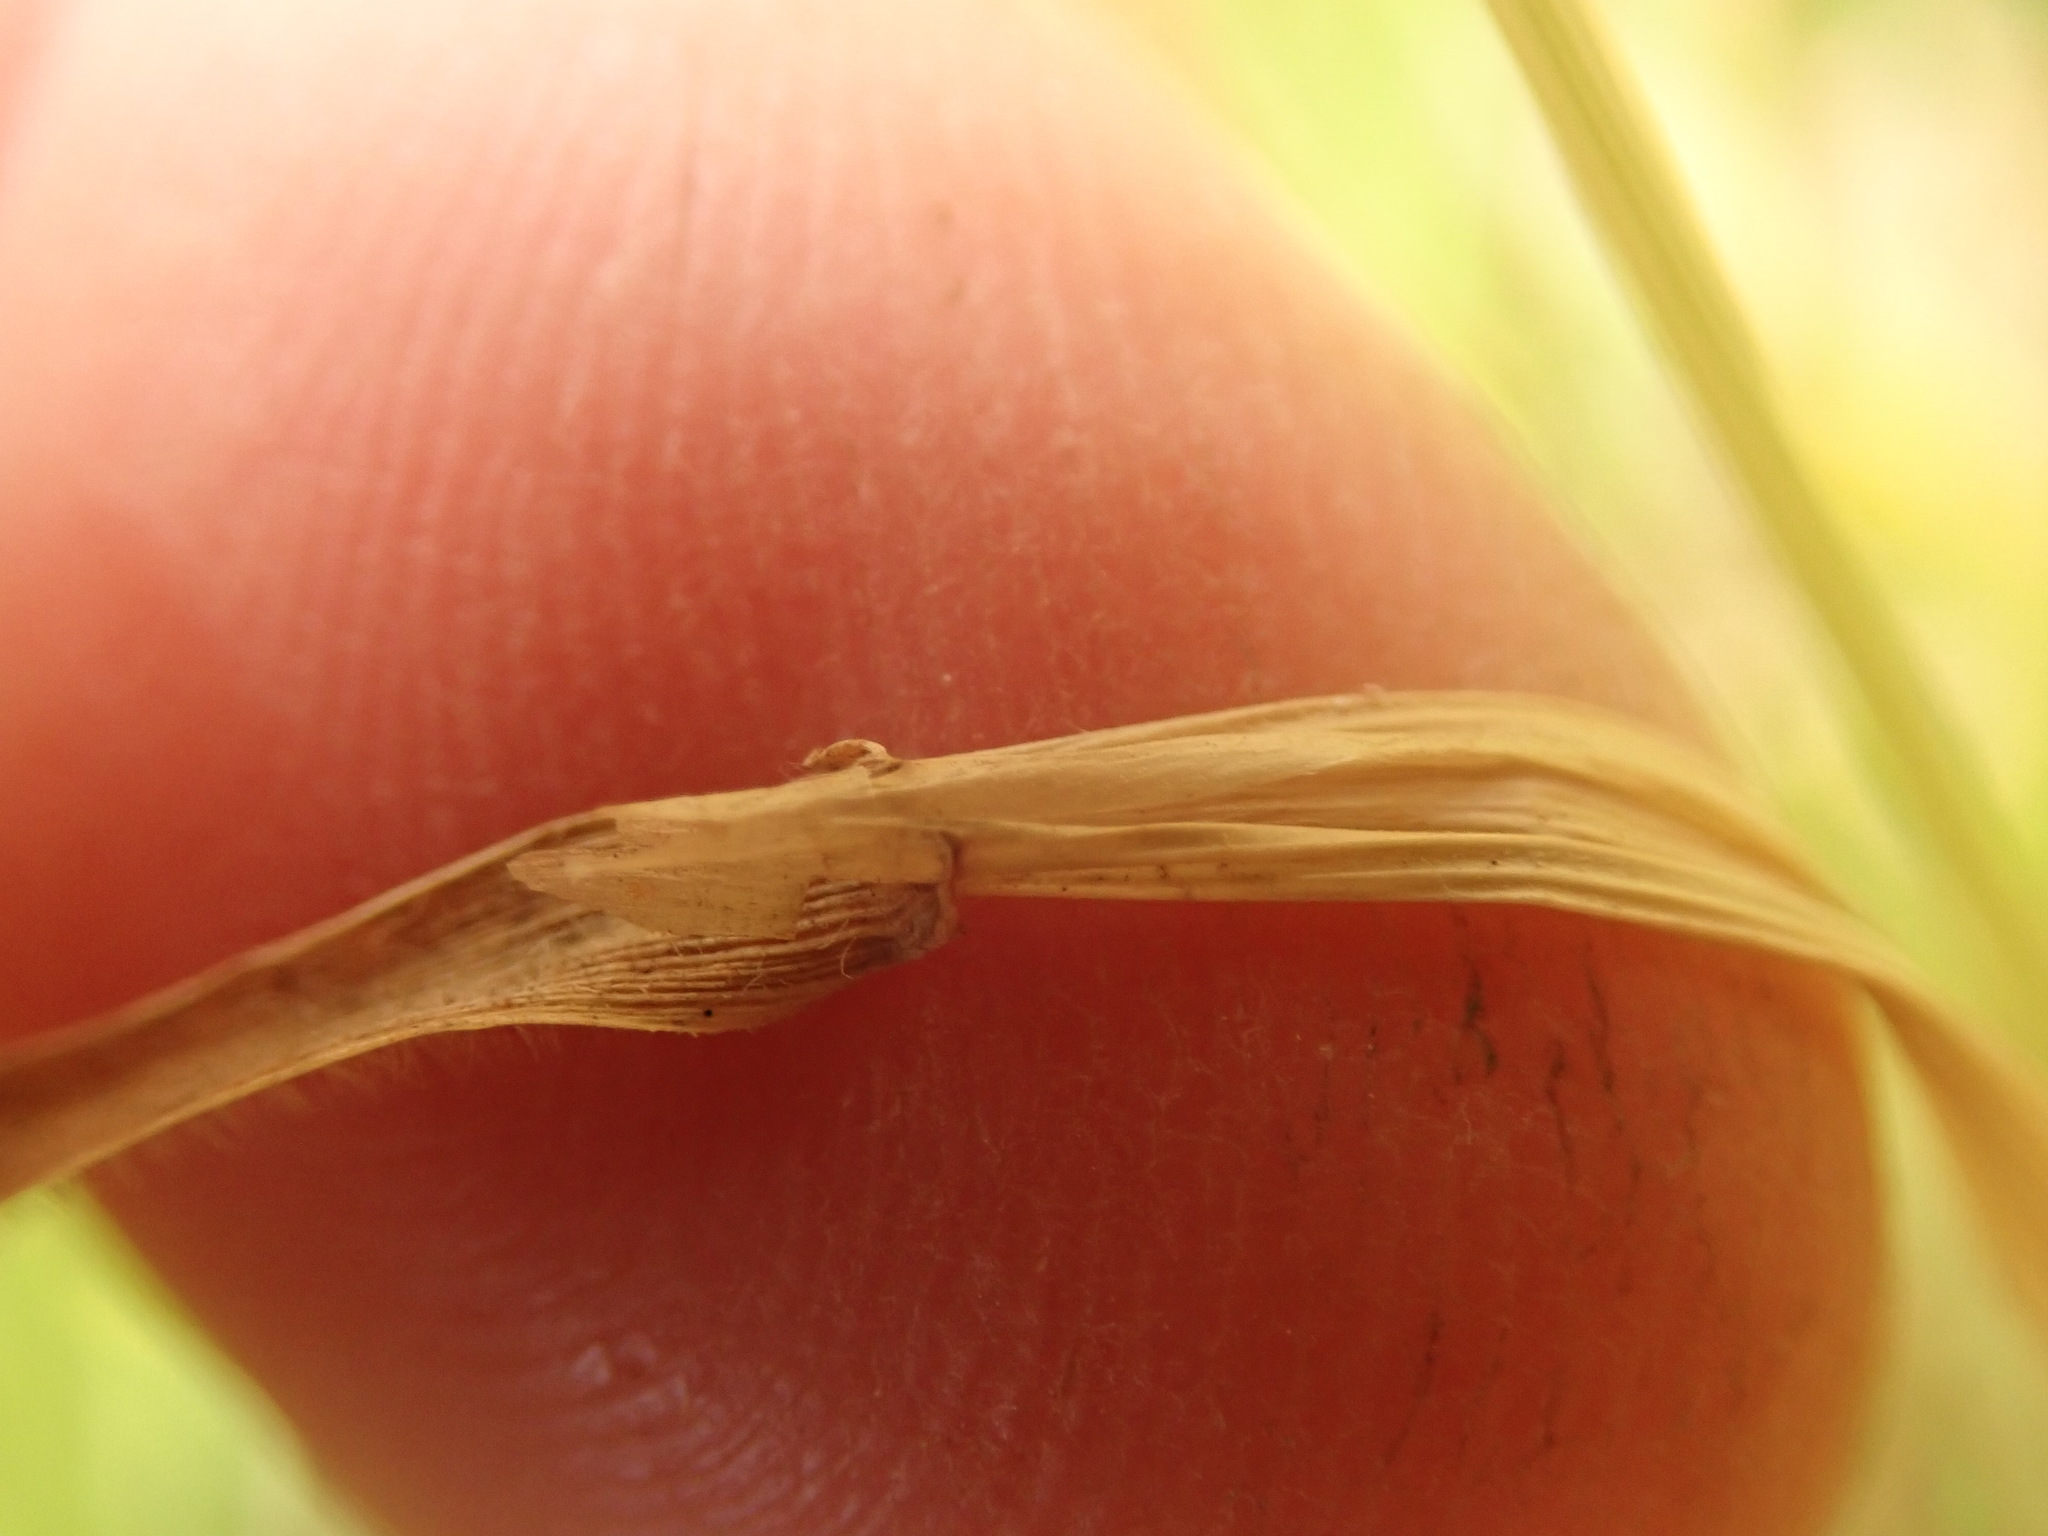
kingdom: Plantae
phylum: Tracheophyta
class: Liliopsida
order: Poales
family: Poaceae
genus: Anthoxanthum
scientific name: Anthoxanthum odoratum
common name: Sweet vernalgrass
